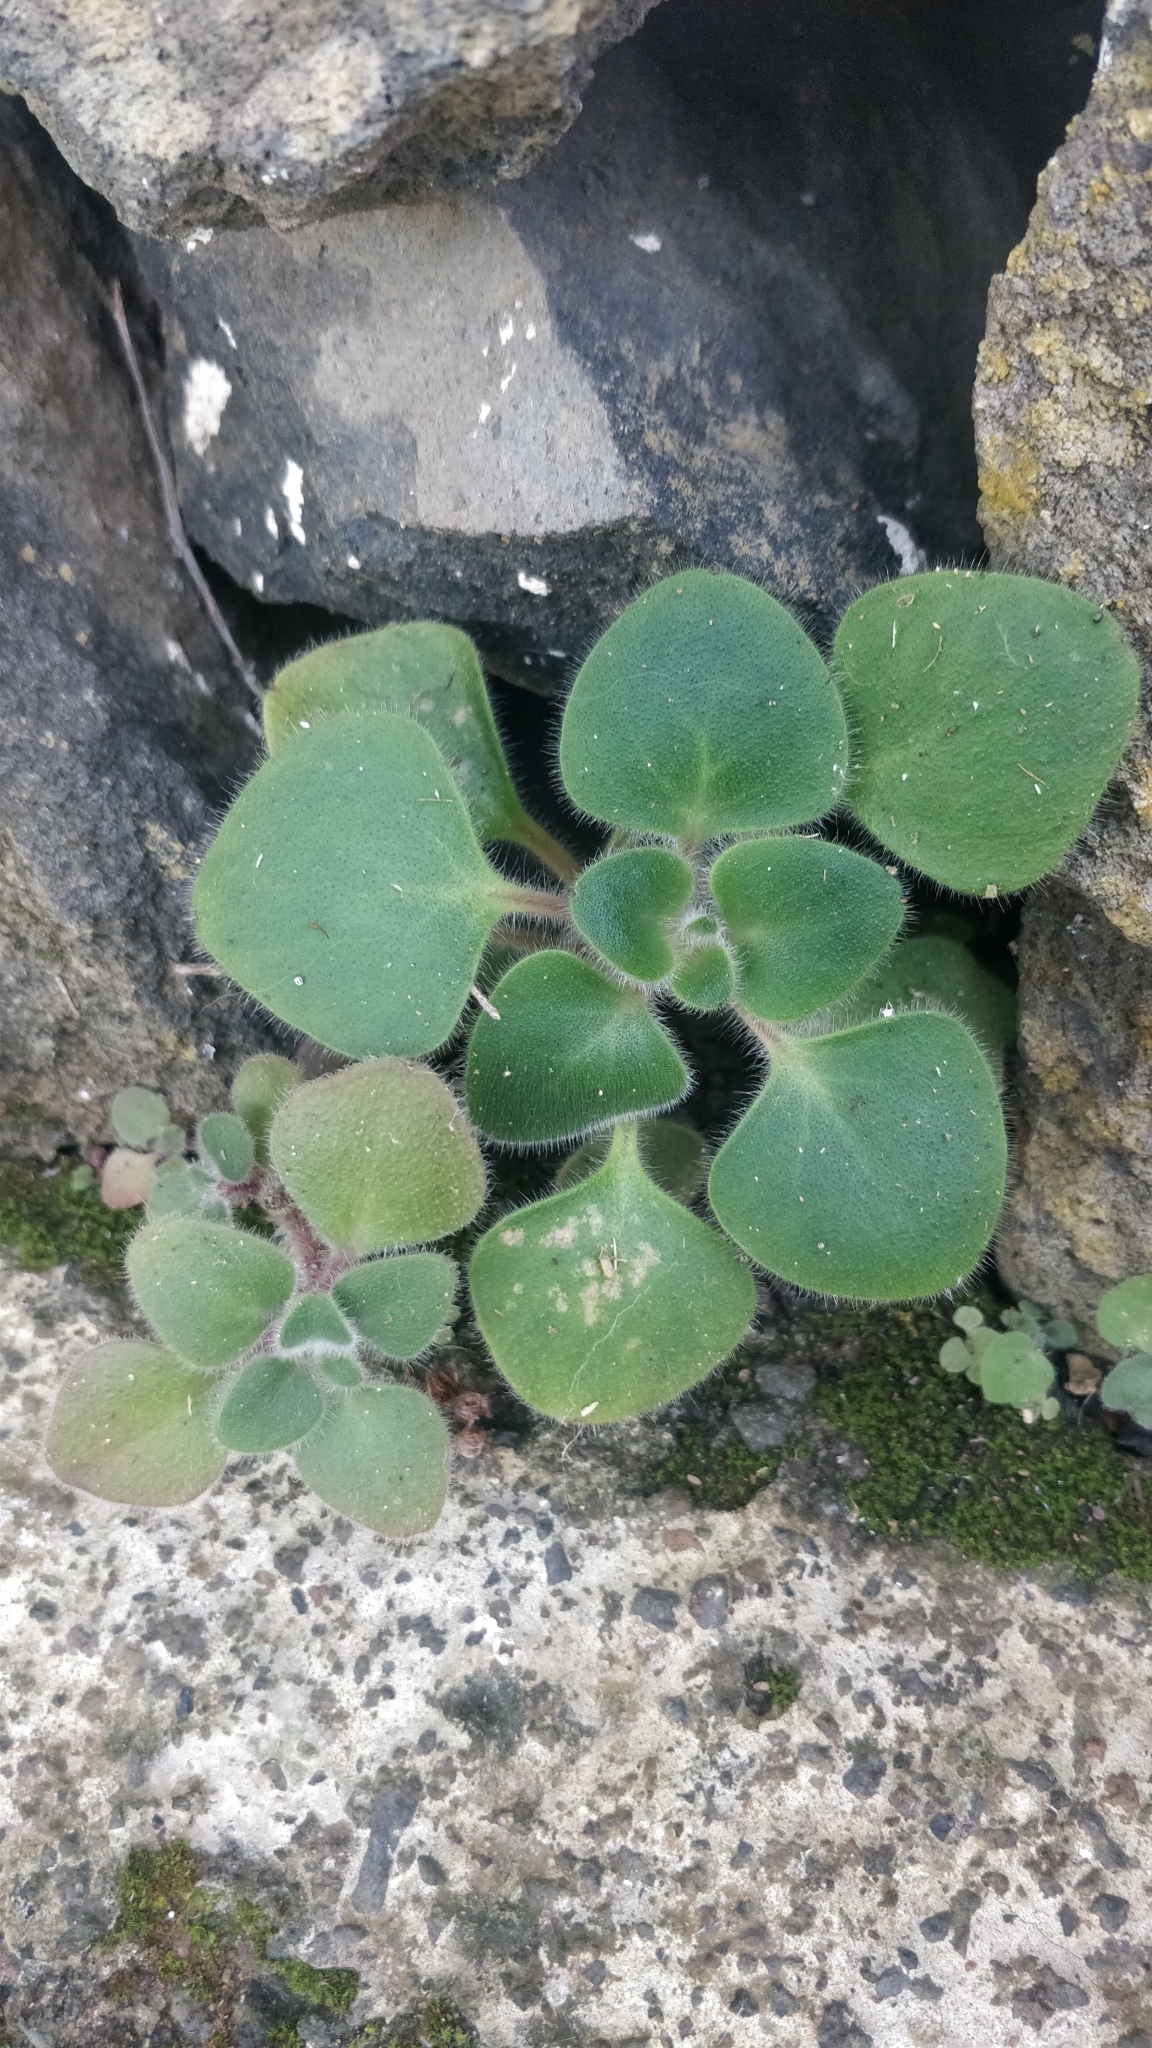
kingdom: Plantae
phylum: Tracheophyta
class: Magnoliopsida
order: Saxifragales
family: Crassulaceae
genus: Aichryson
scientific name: Aichryson laxum
